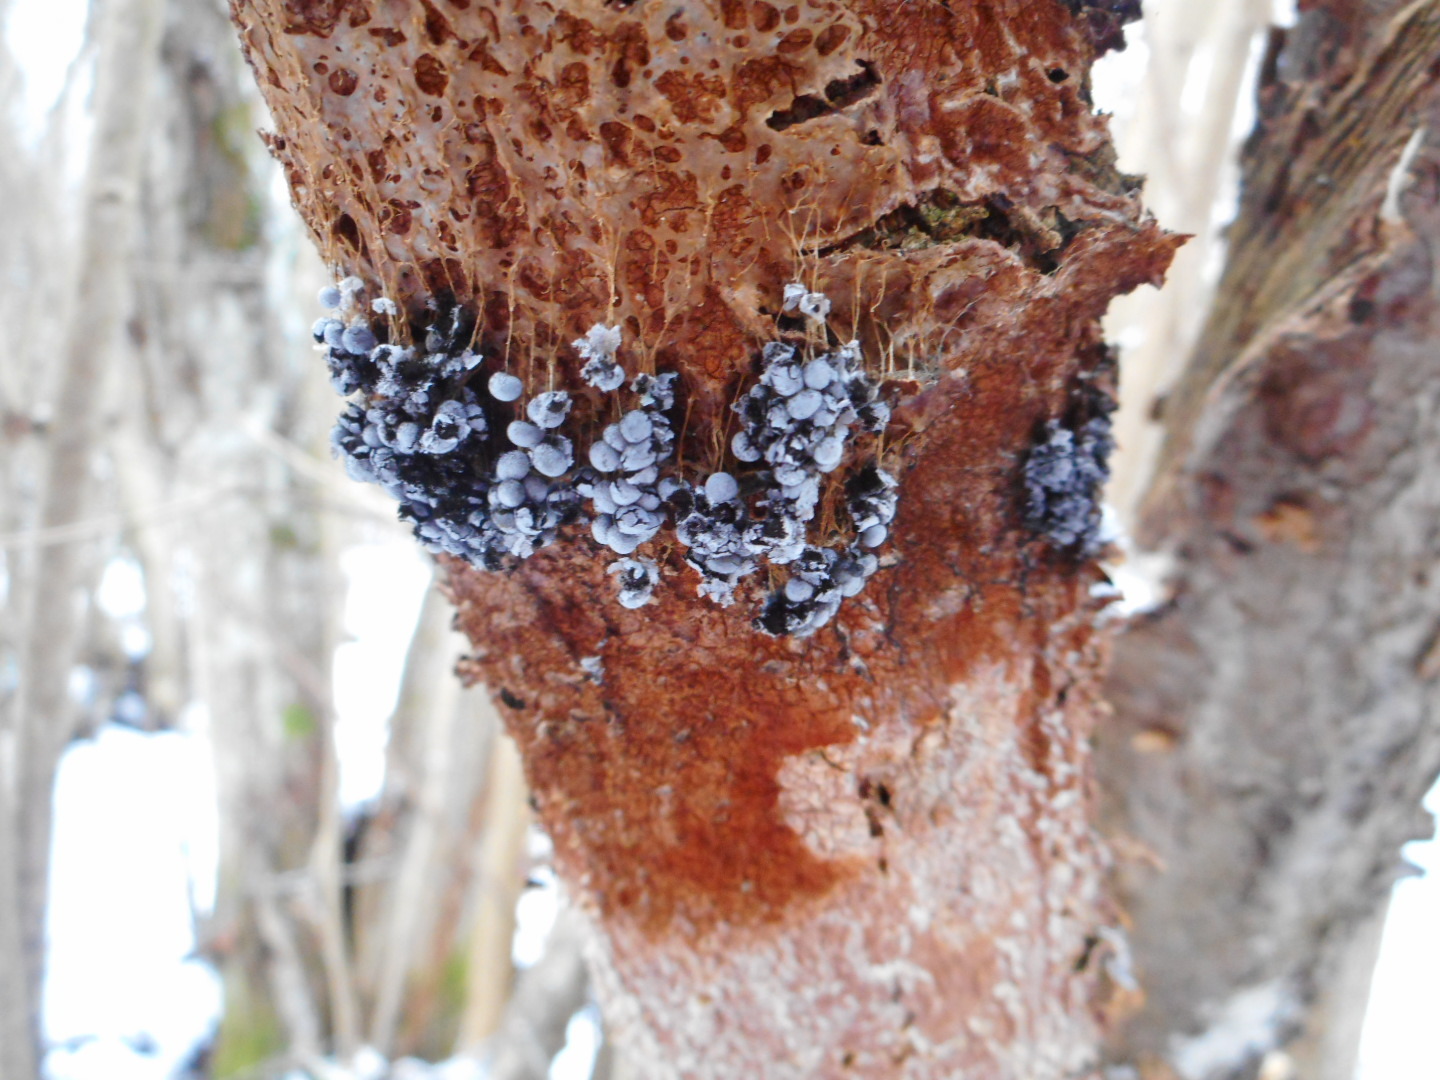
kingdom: Protozoa
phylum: Mycetozoa
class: Myxomycetes
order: Physarales
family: Physaraceae
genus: Badhamia
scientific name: Badhamia utricularis
